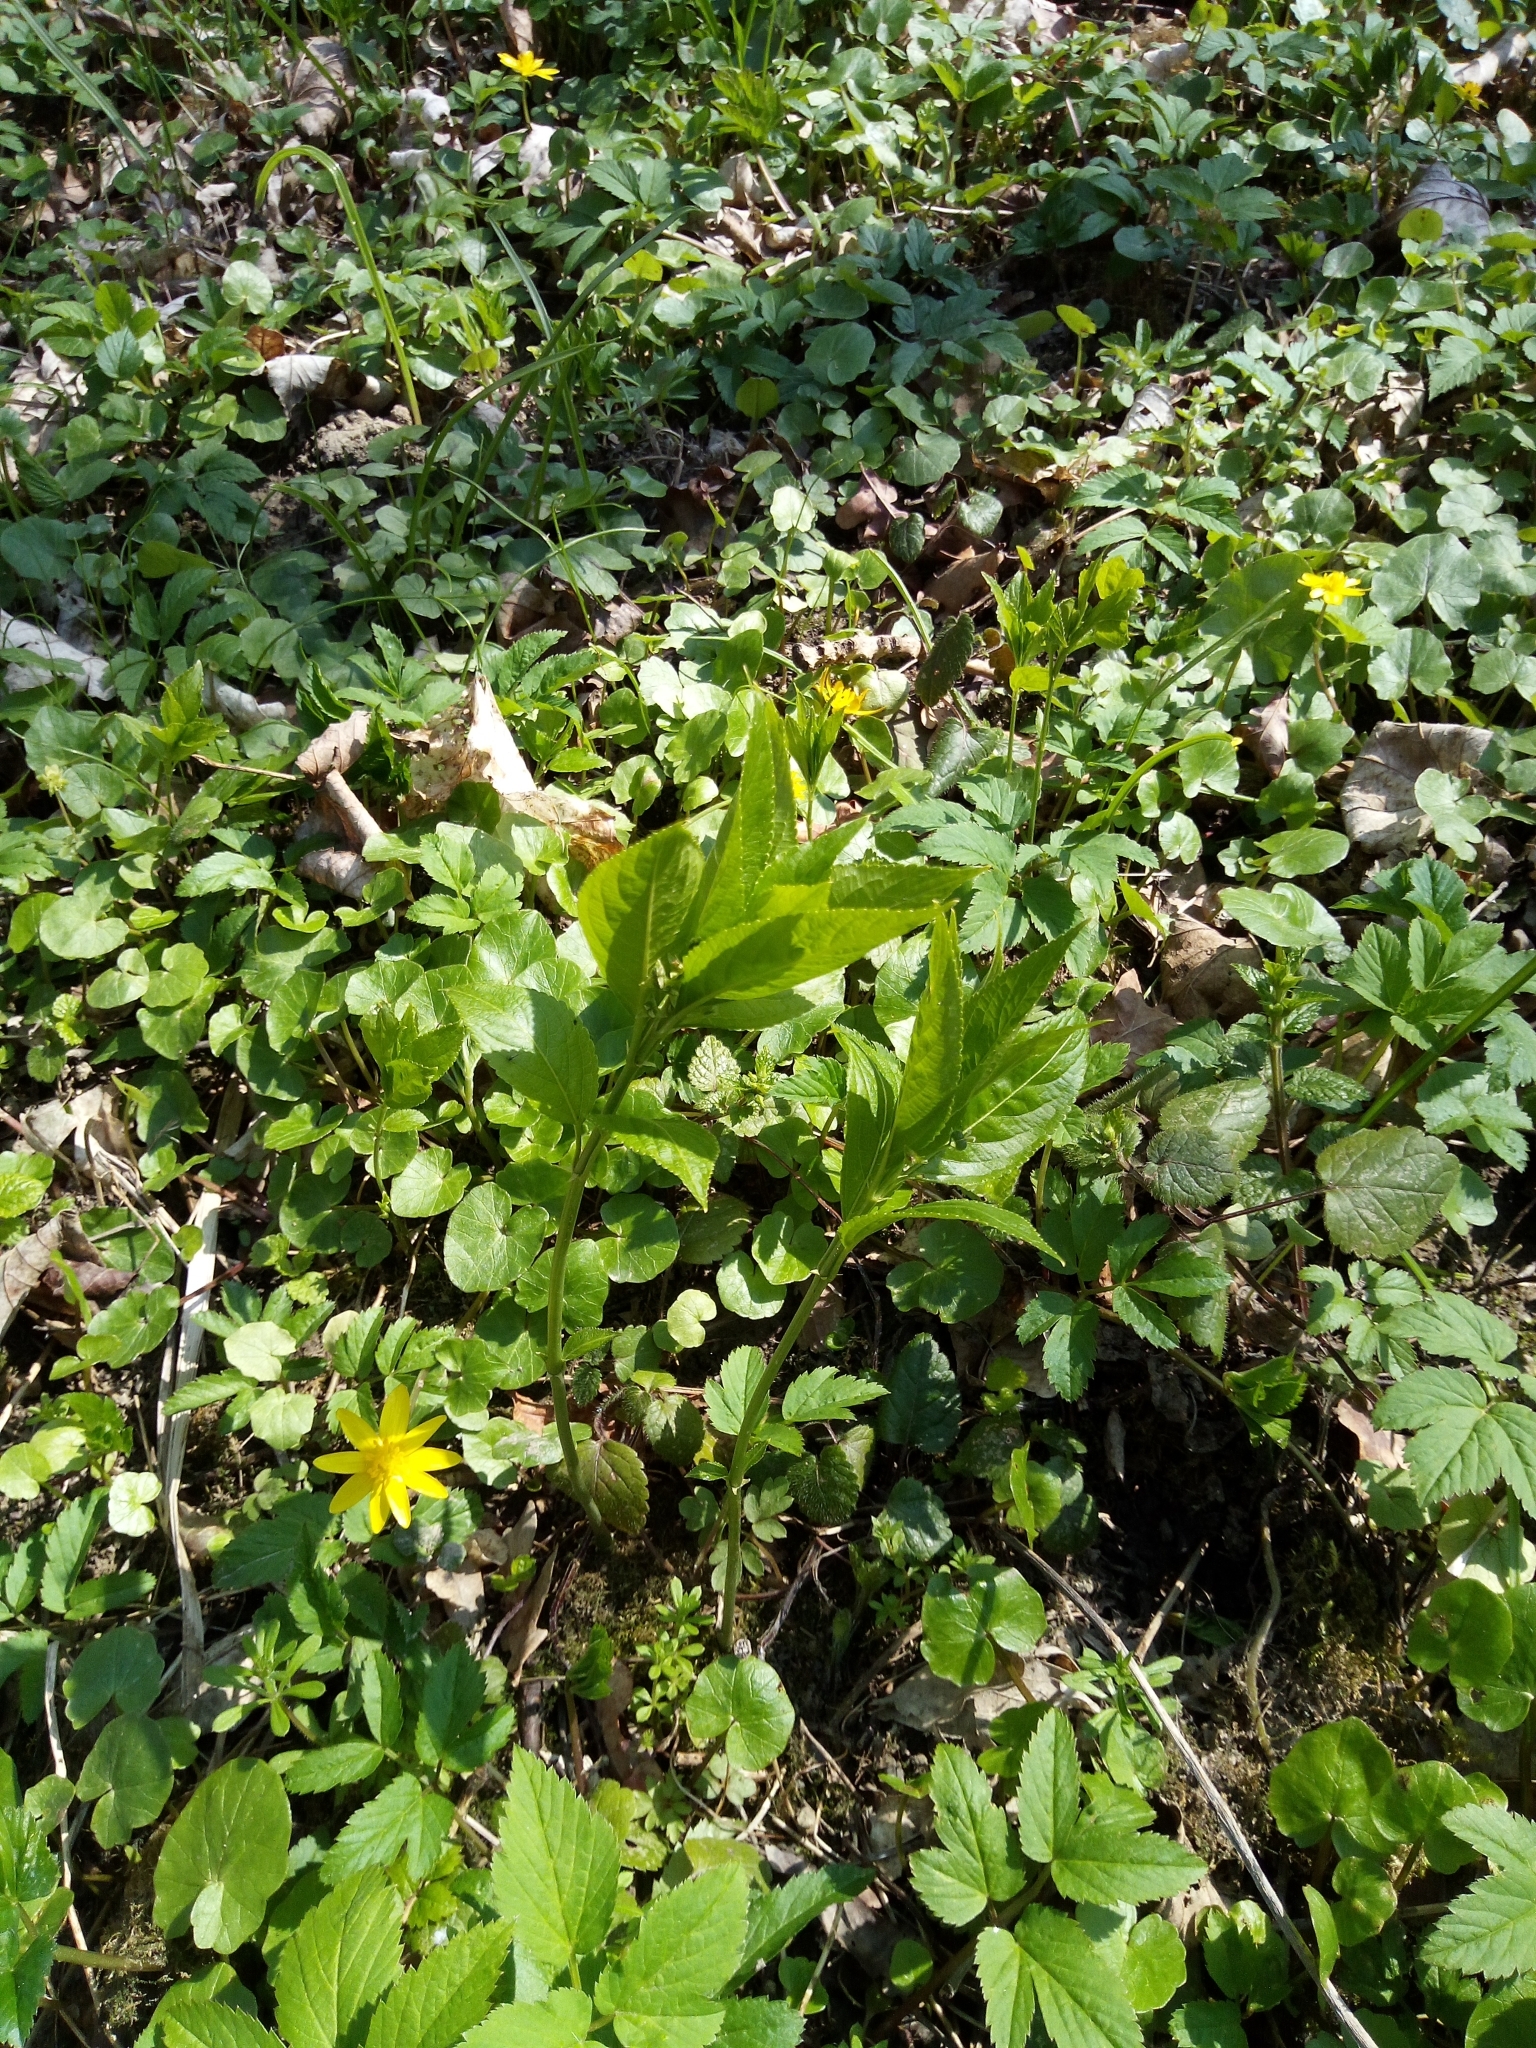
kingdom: Plantae
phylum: Tracheophyta
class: Magnoliopsida
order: Malpighiales
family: Euphorbiaceae
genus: Mercurialis
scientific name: Mercurialis perennis
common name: Dog mercury
